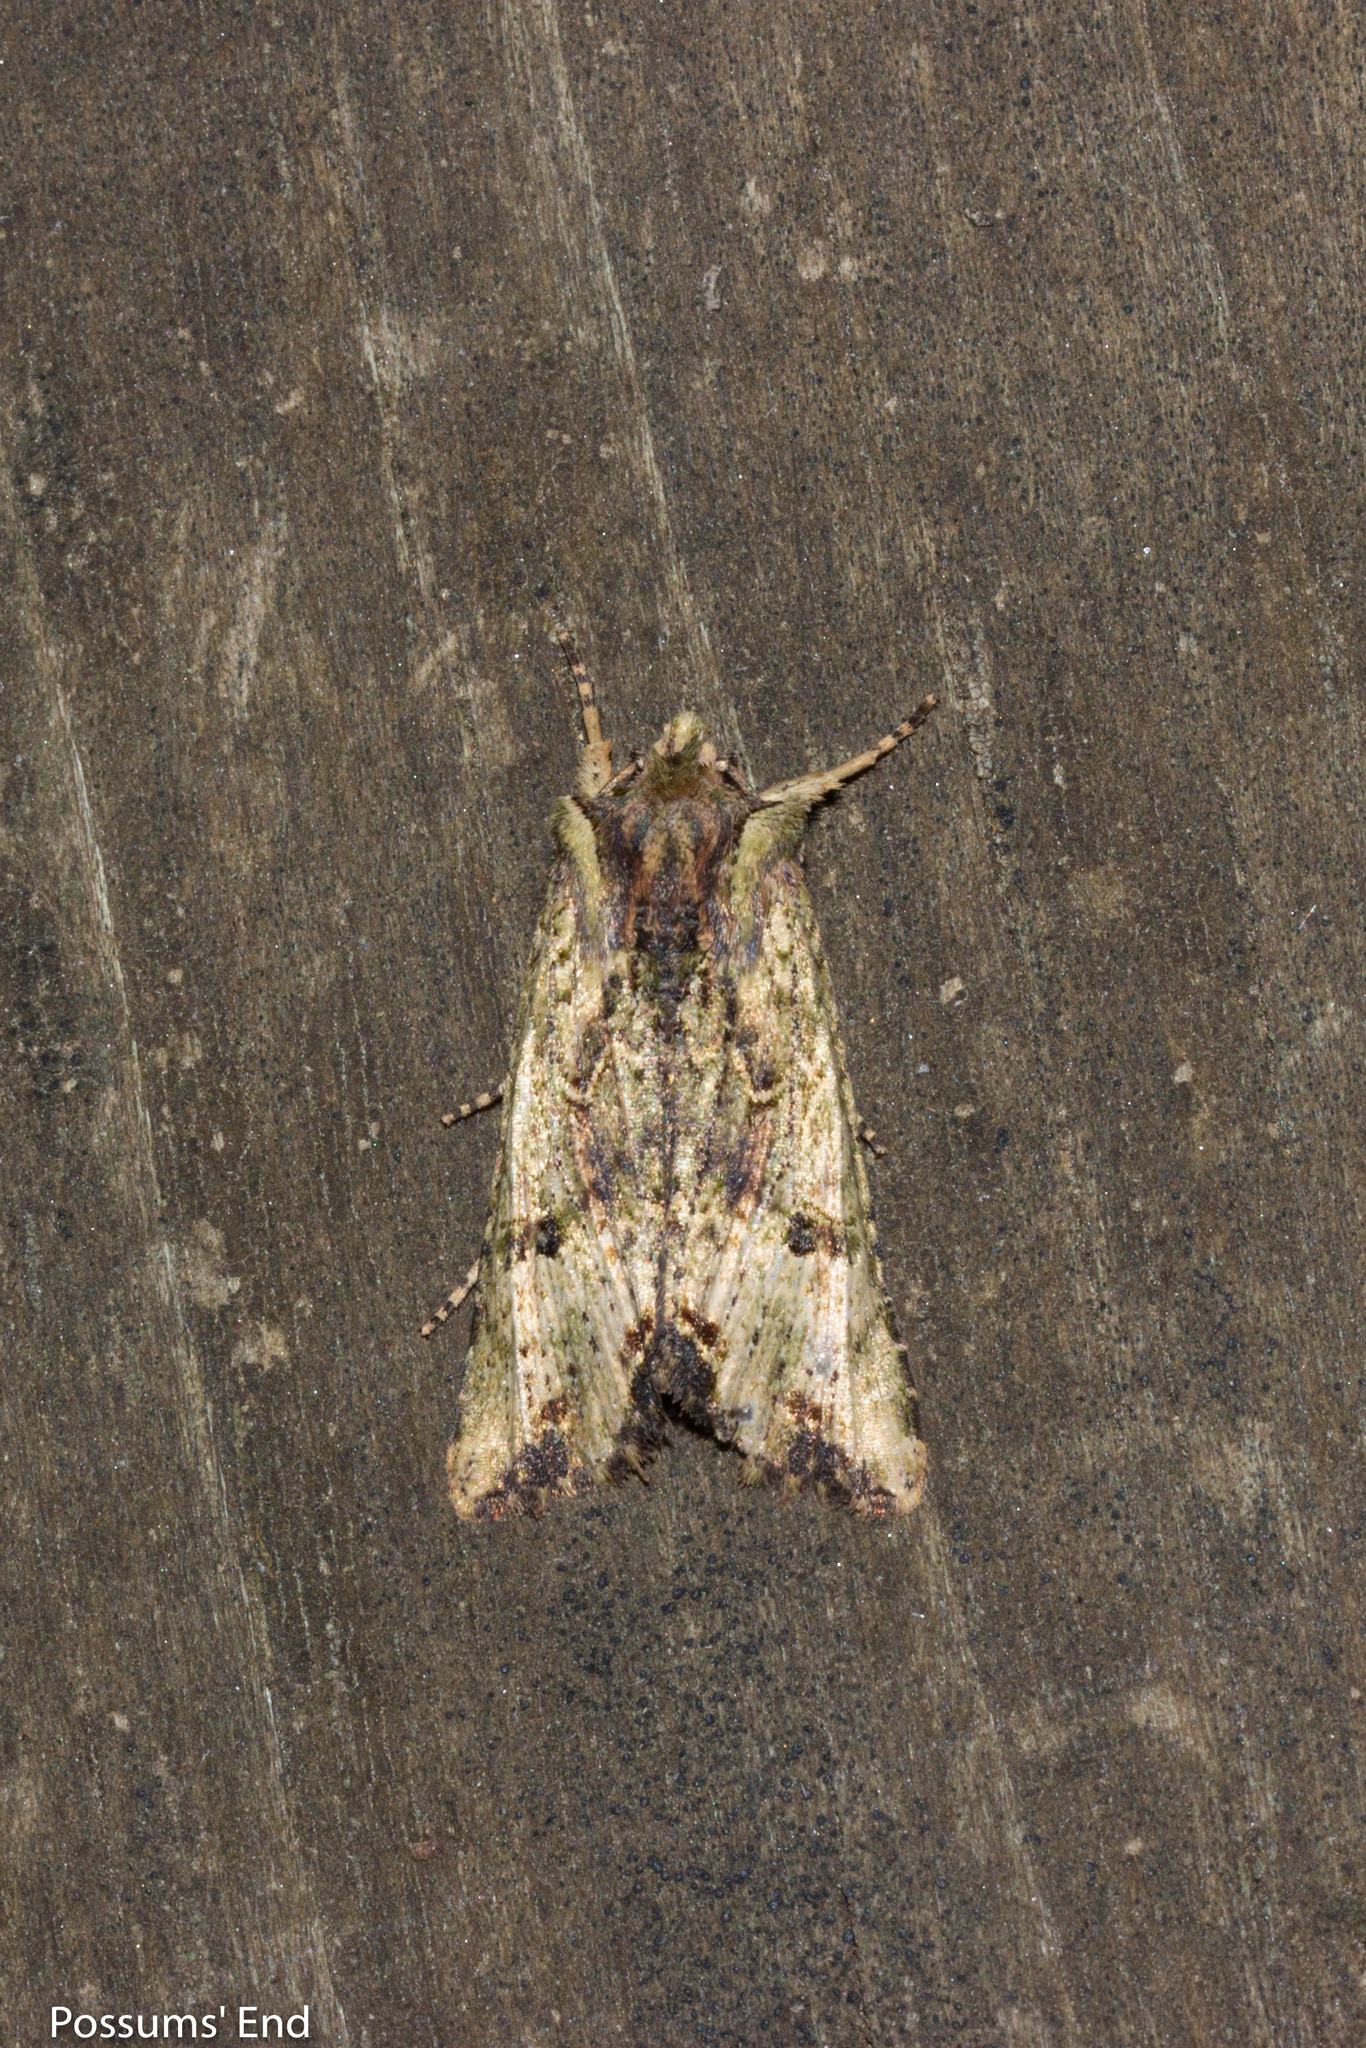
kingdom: Animalia
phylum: Arthropoda
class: Insecta
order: Lepidoptera
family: Noctuidae
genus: Meterana
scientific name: Meterana coeleno
